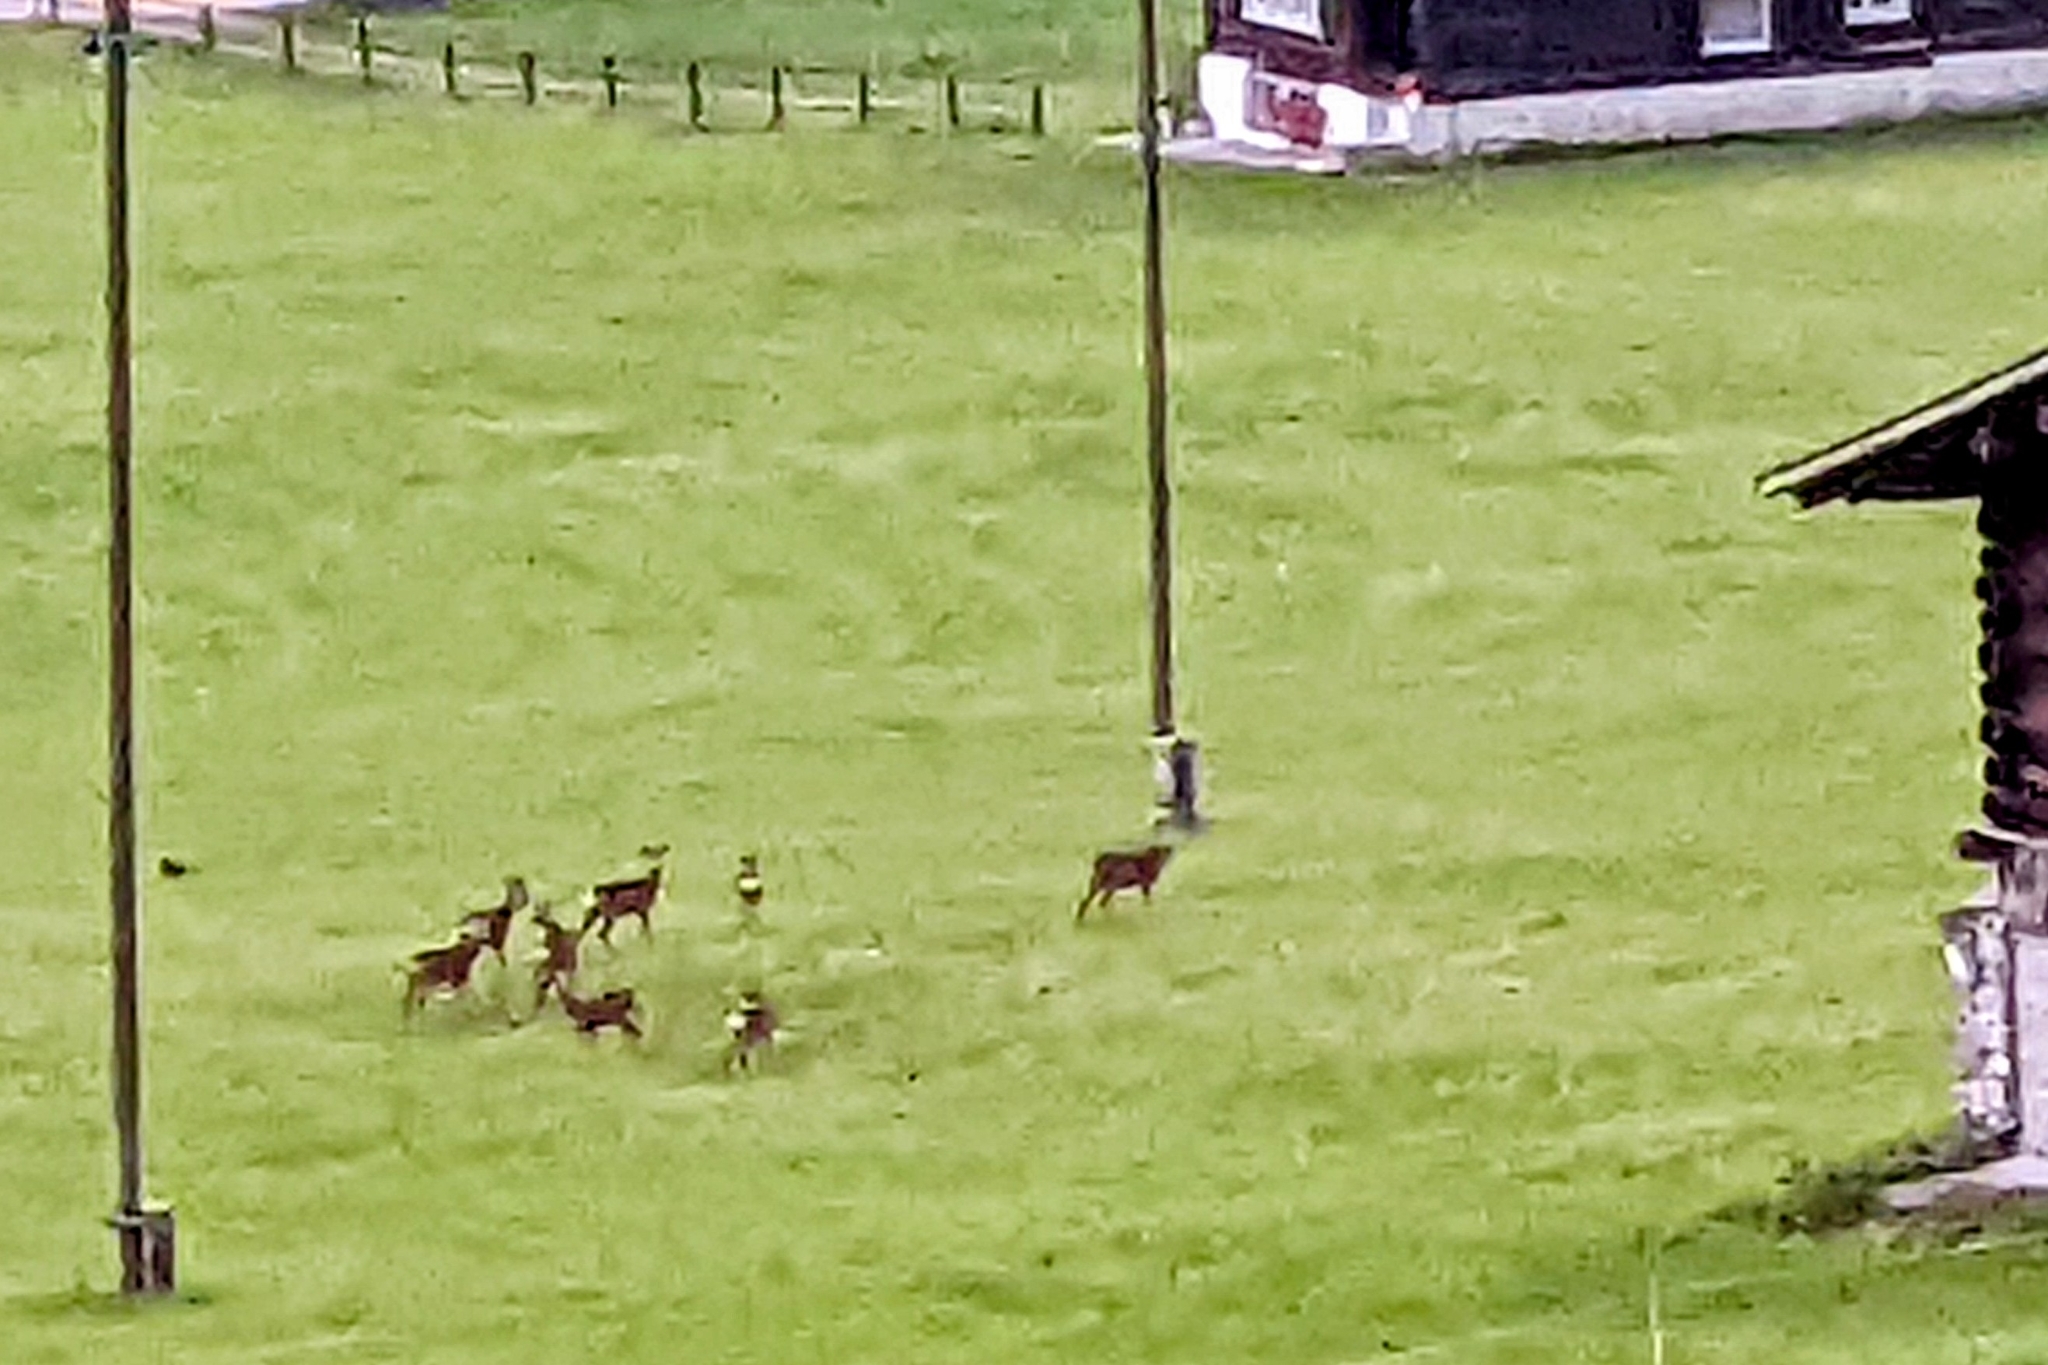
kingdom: Animalia
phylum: Chordata
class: Mammalia
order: Artiodactyla
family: Cervidae
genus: Capreolus
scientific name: Capreolus capreolus
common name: Western roe deer
